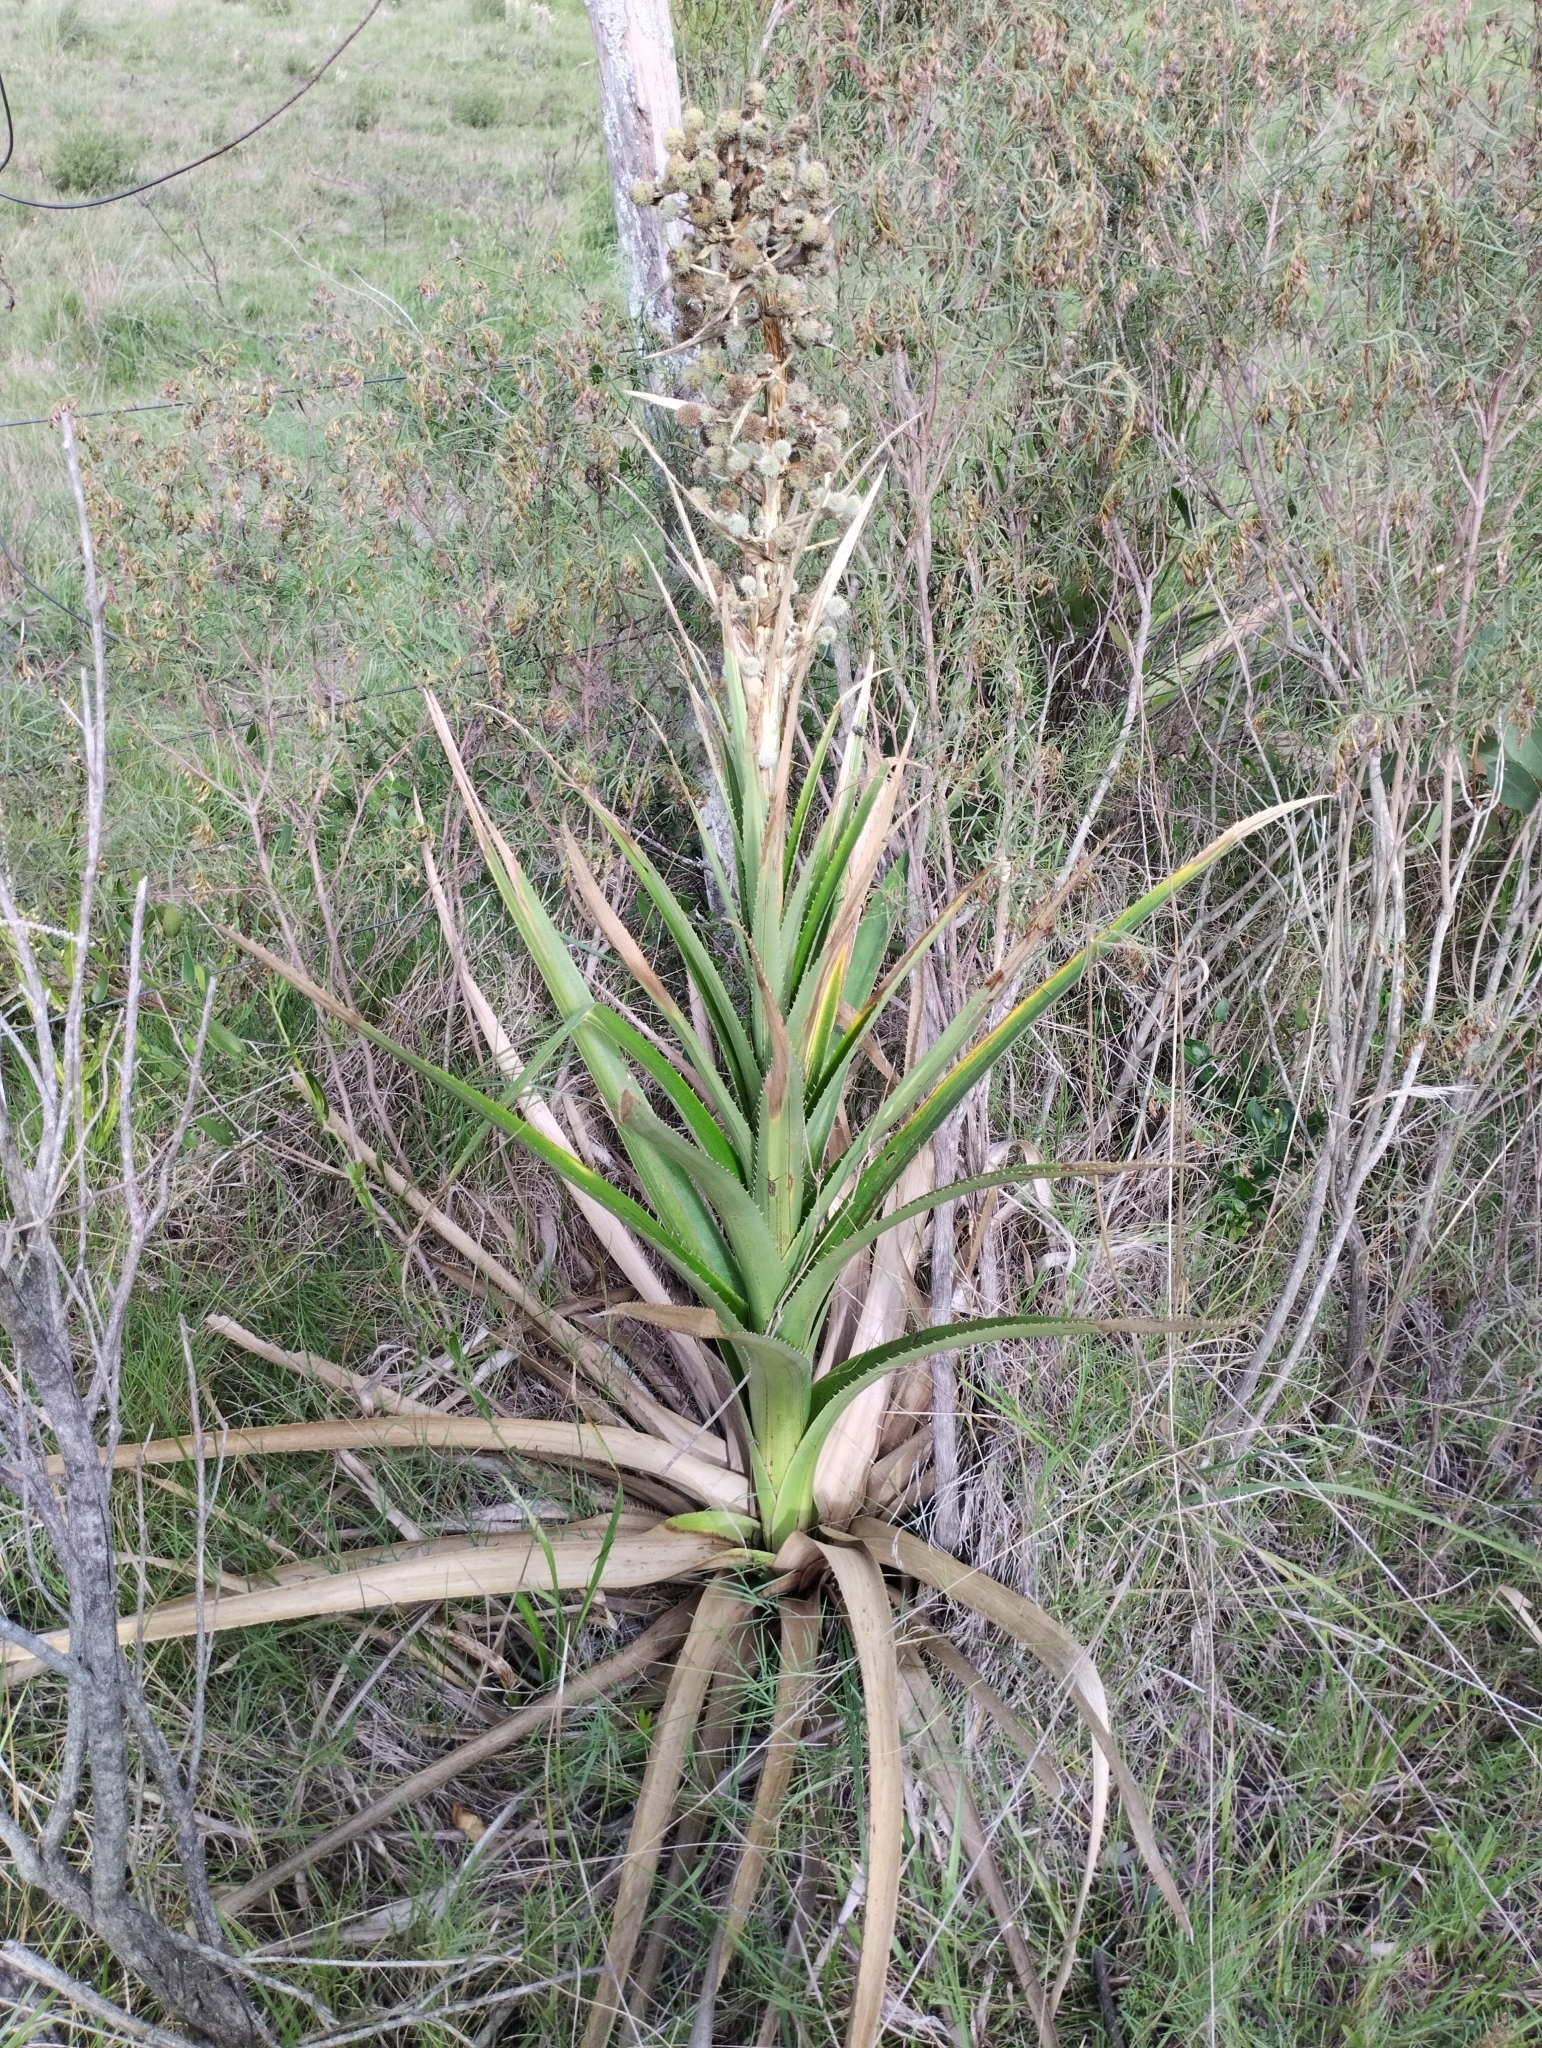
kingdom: Plantae
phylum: Tracheophyta
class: Magnoliopsida
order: Apiales
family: Apiaceae
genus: Eryngium
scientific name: Eryngium eburneum
